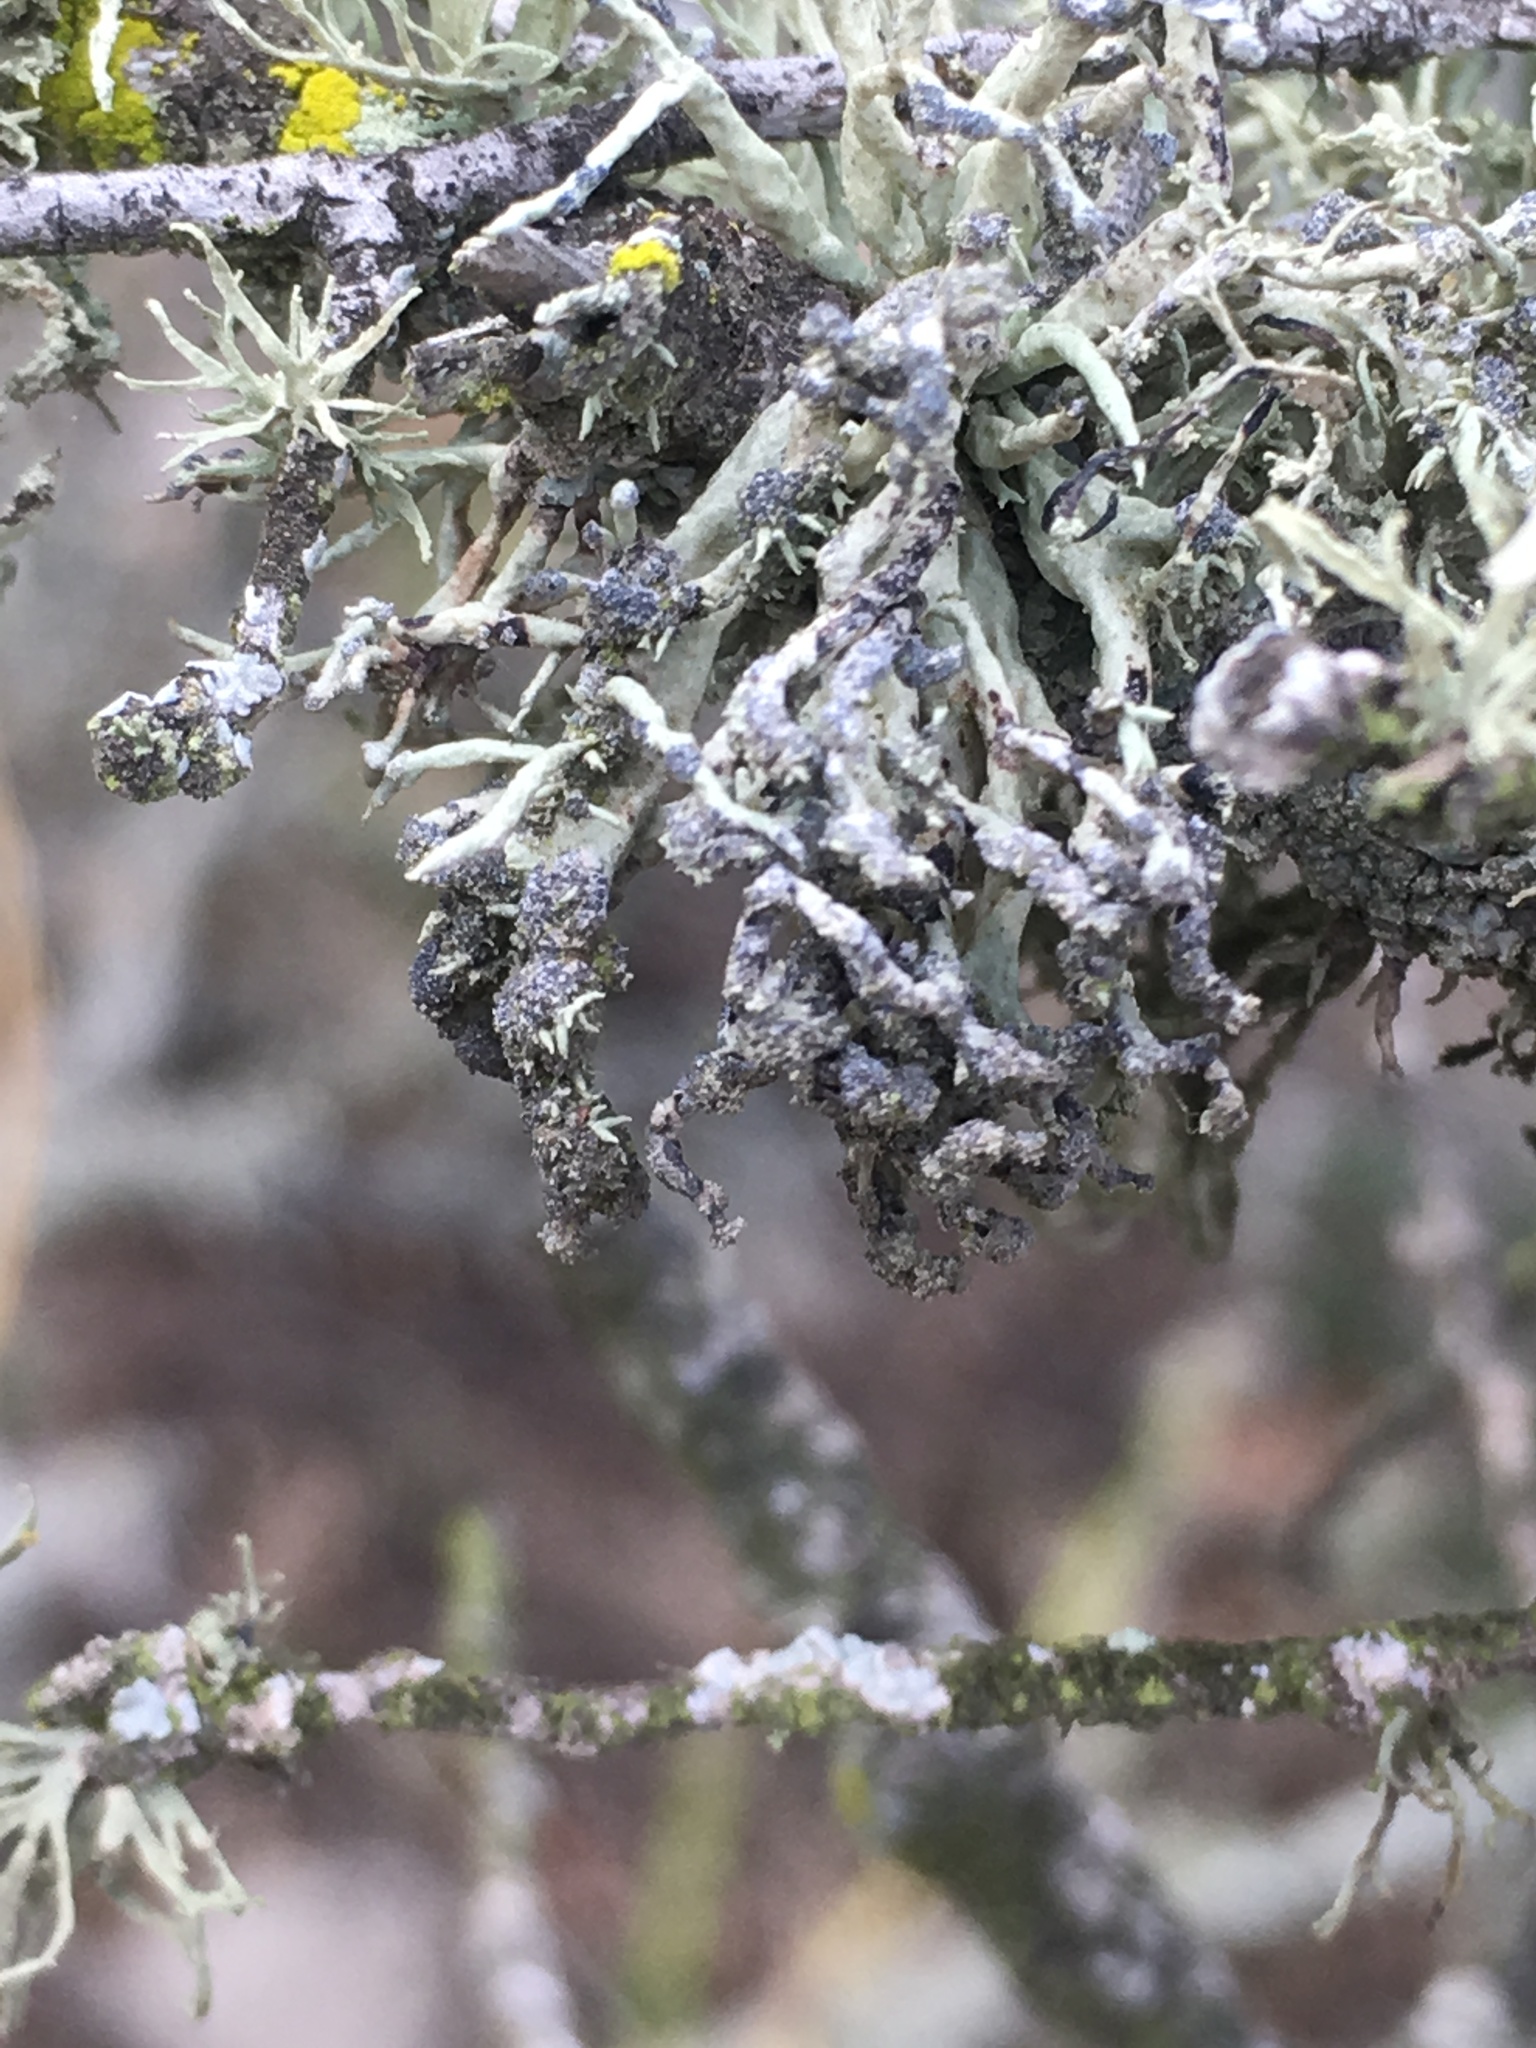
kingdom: Fungi
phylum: Ascomycota
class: Lecanoromycetes
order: Lecanorales
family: Ramalinaceae
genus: Niebla
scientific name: Niebla cephalota
